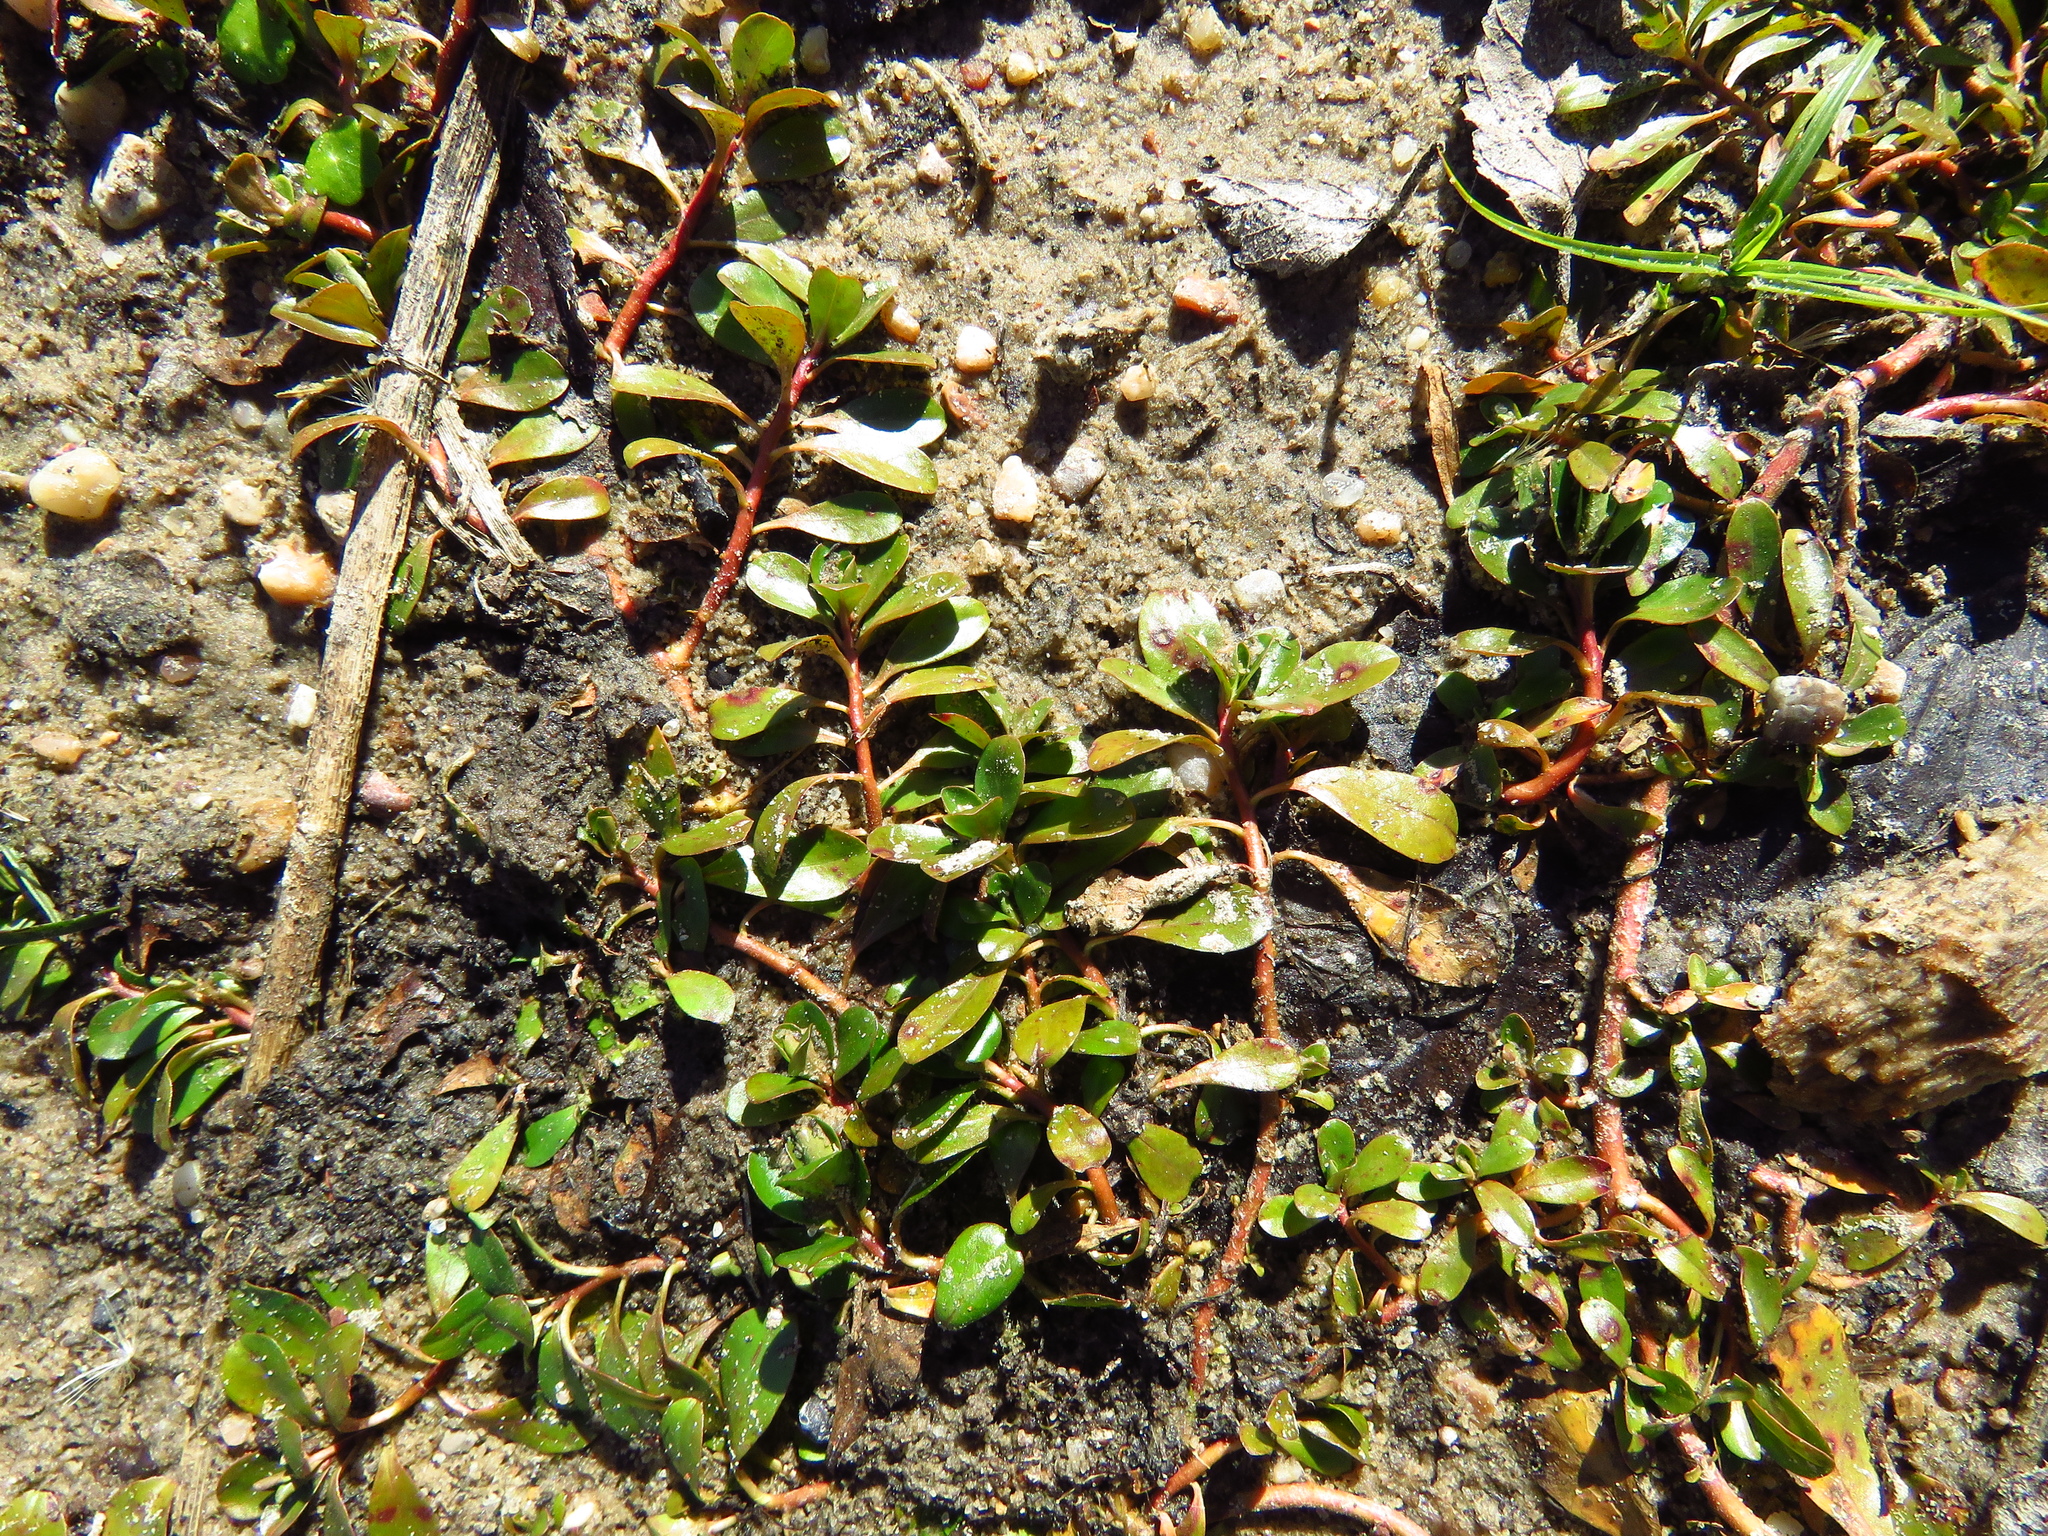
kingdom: Plantae
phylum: Tracheophyta
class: Magnoliopsida
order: Myrtales
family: Onagraceae
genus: Ludwigia
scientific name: Ludwigia peploides
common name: Floating primrose-willow
